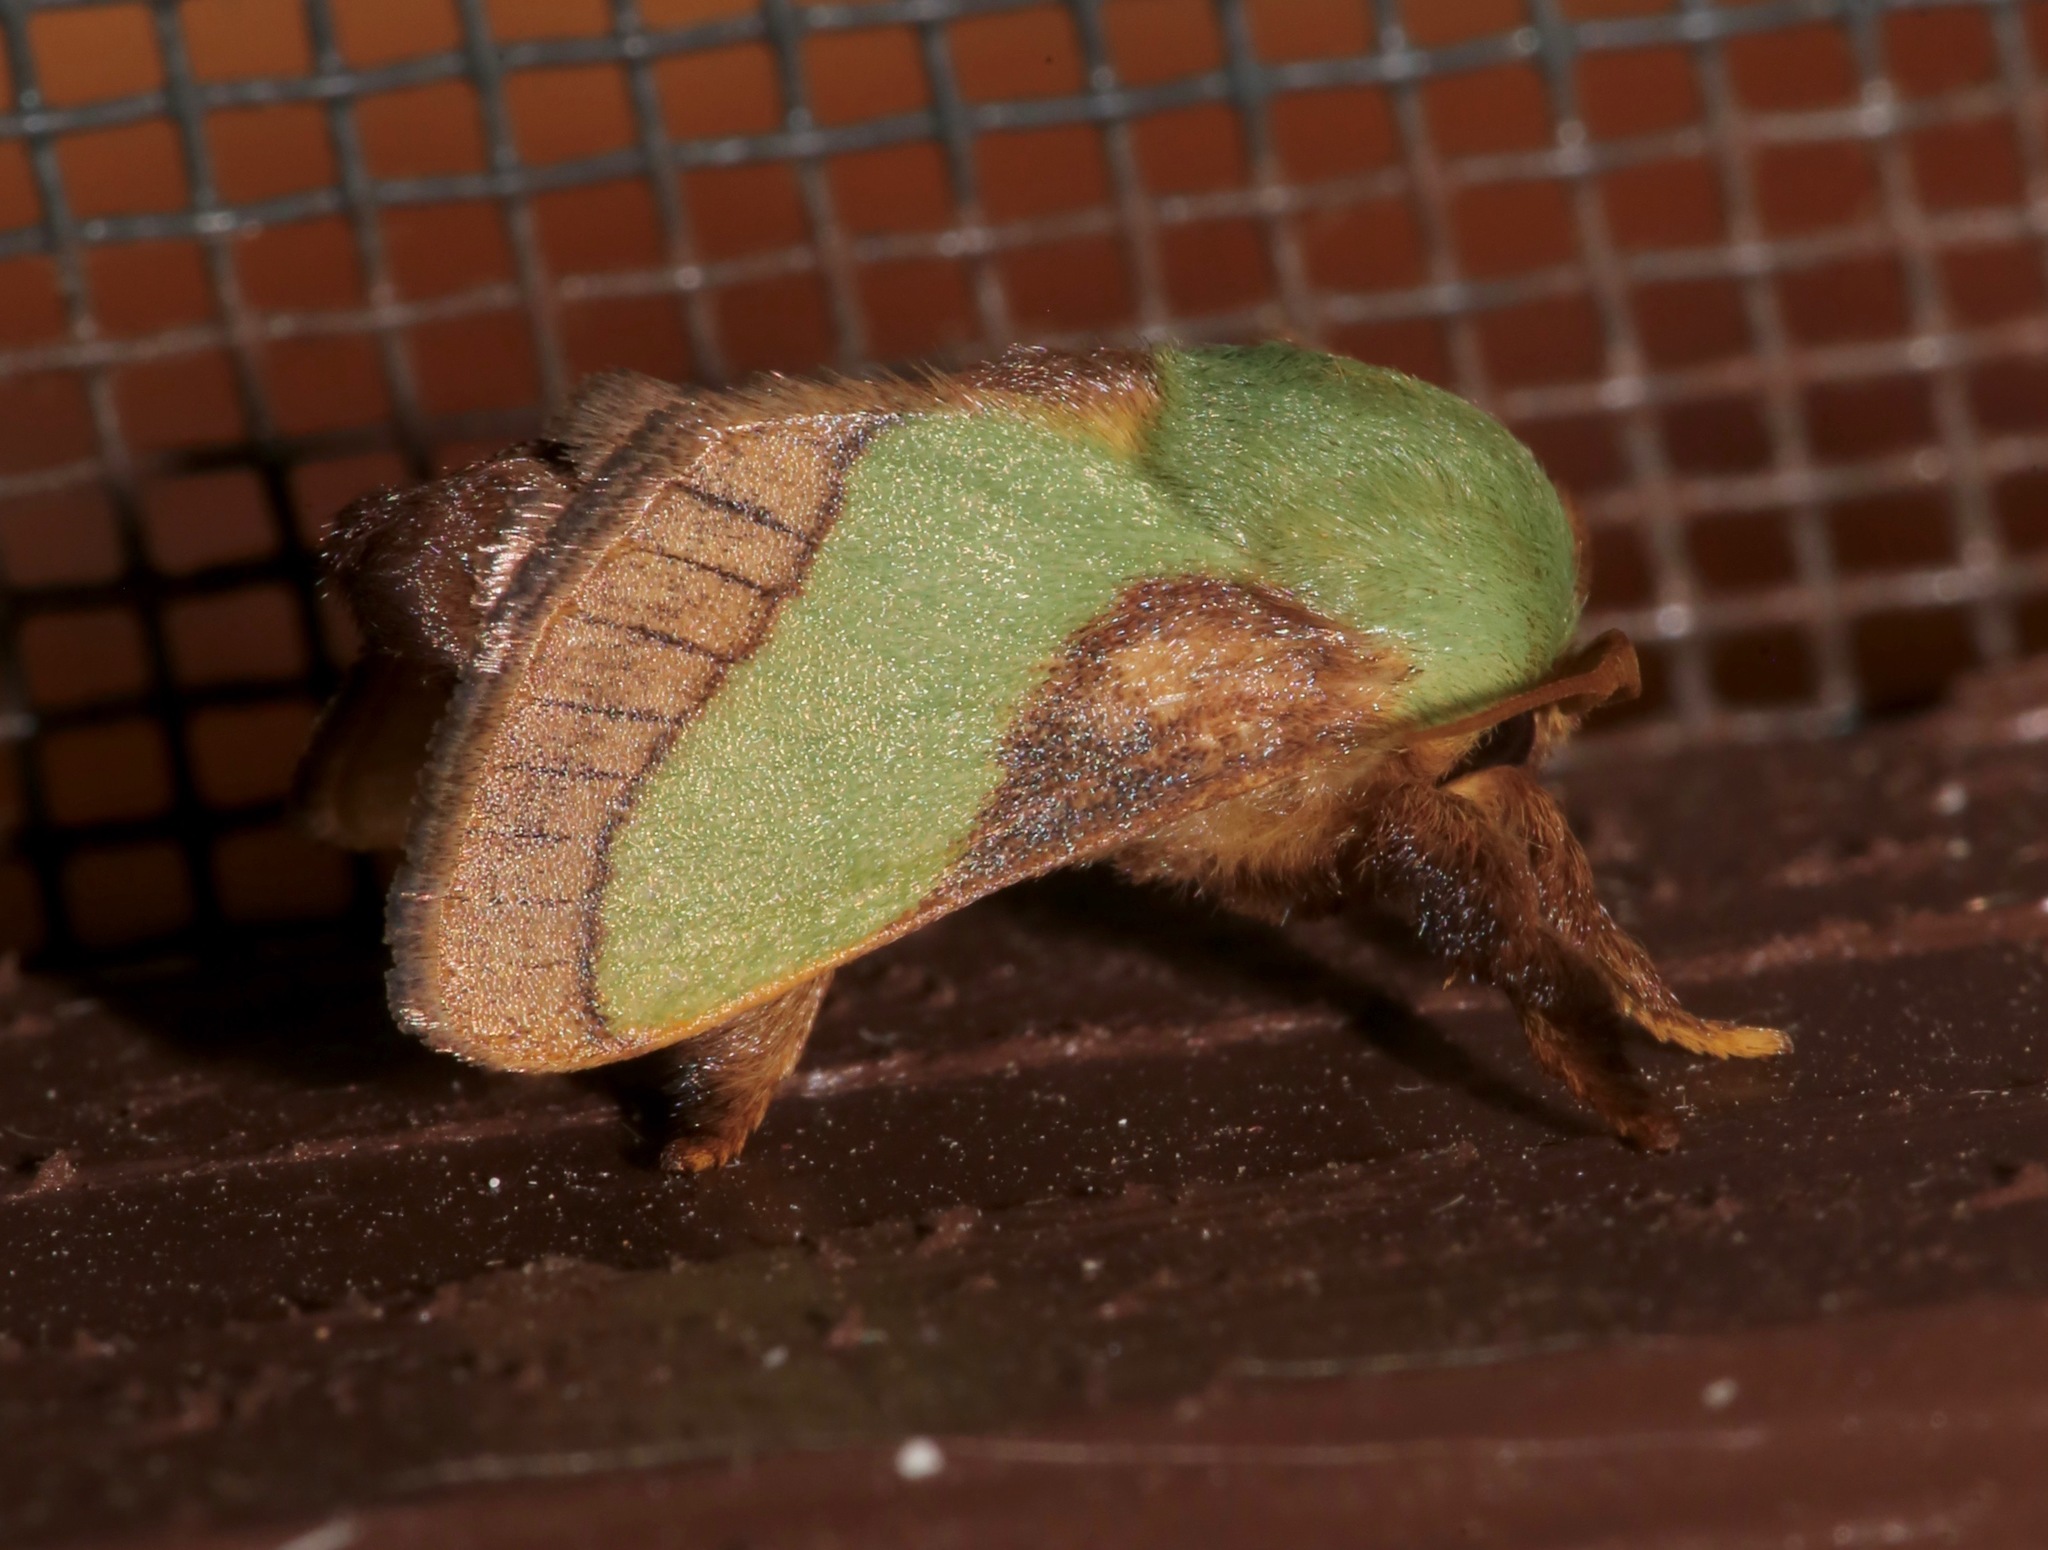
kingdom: Animalia
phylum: Arthropoda
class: Insecta
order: Lepidoptera
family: Limacodidae
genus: Parasa
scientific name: Parasa chloris
